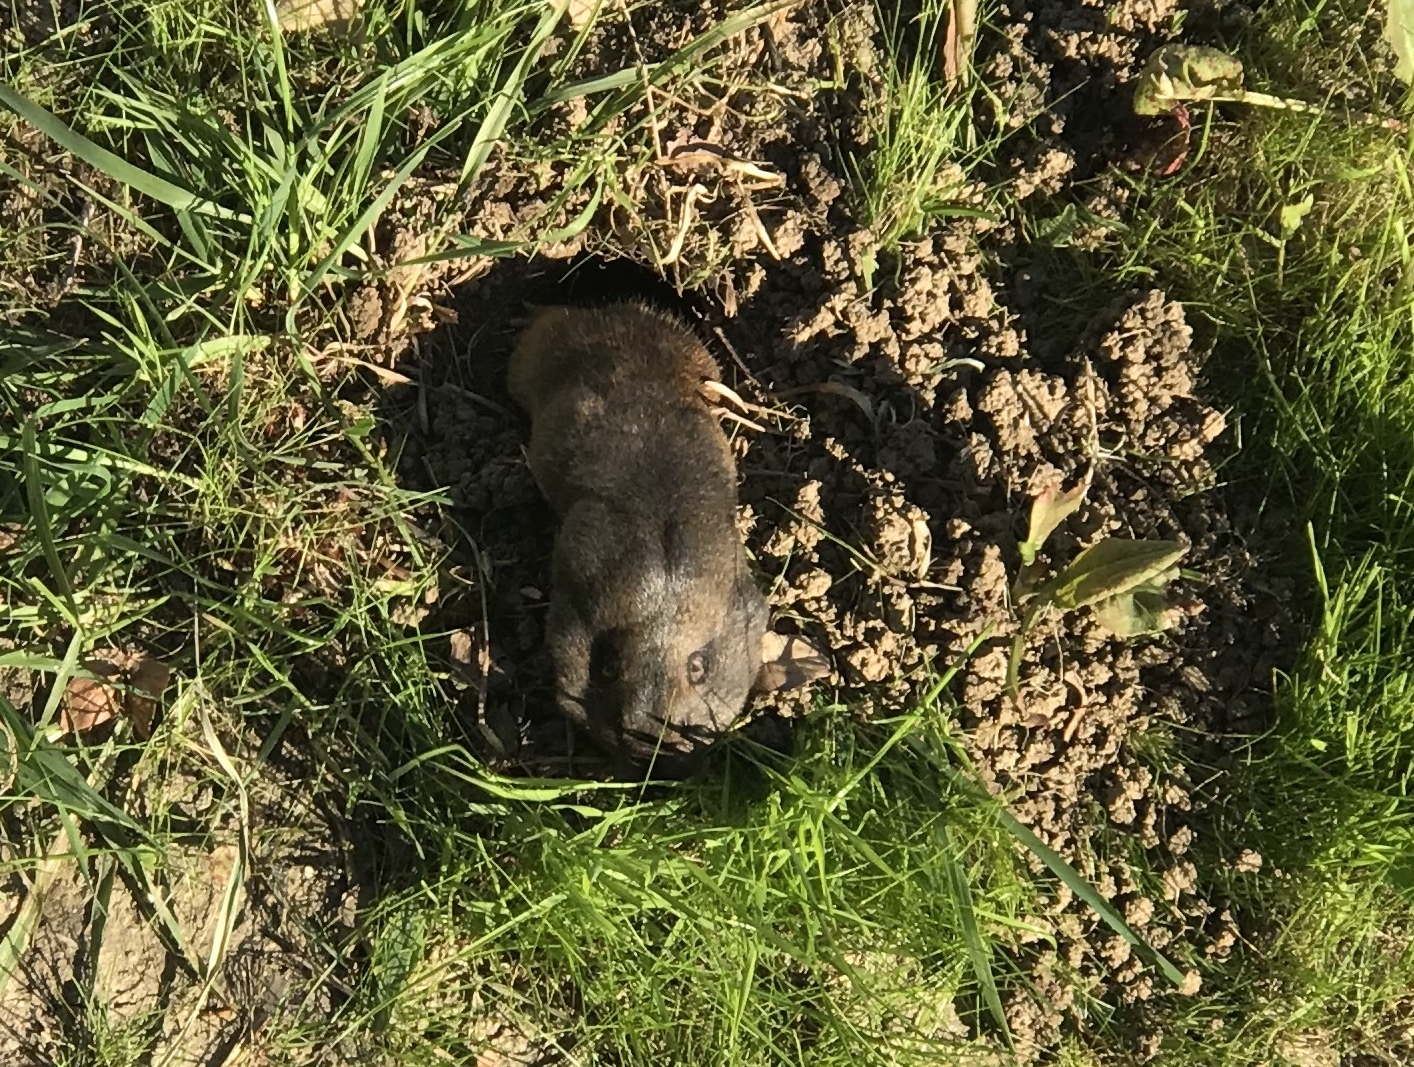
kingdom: Animalia
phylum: Chordata
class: Mammalia
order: Rodentia
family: Geomyidae
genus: Thomomys
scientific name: Thomomys bottae
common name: Botta's pocket gopher
